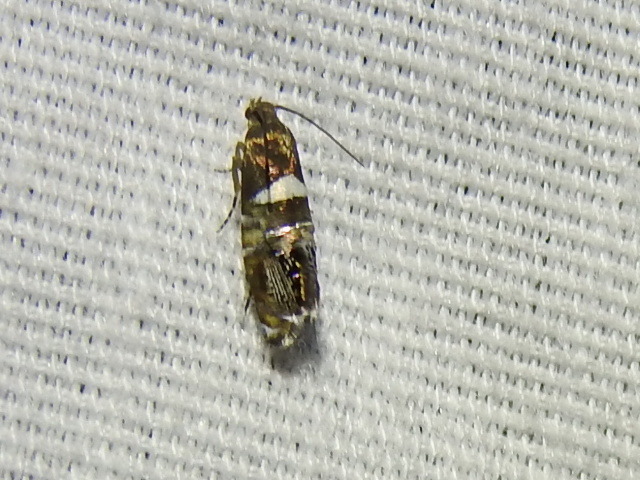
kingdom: Animalia
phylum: Arthropoda
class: Insecta
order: Lepidoptera
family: Glyphipterigidae
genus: Glyphipterix
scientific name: Glyphipterix circumscriptella
